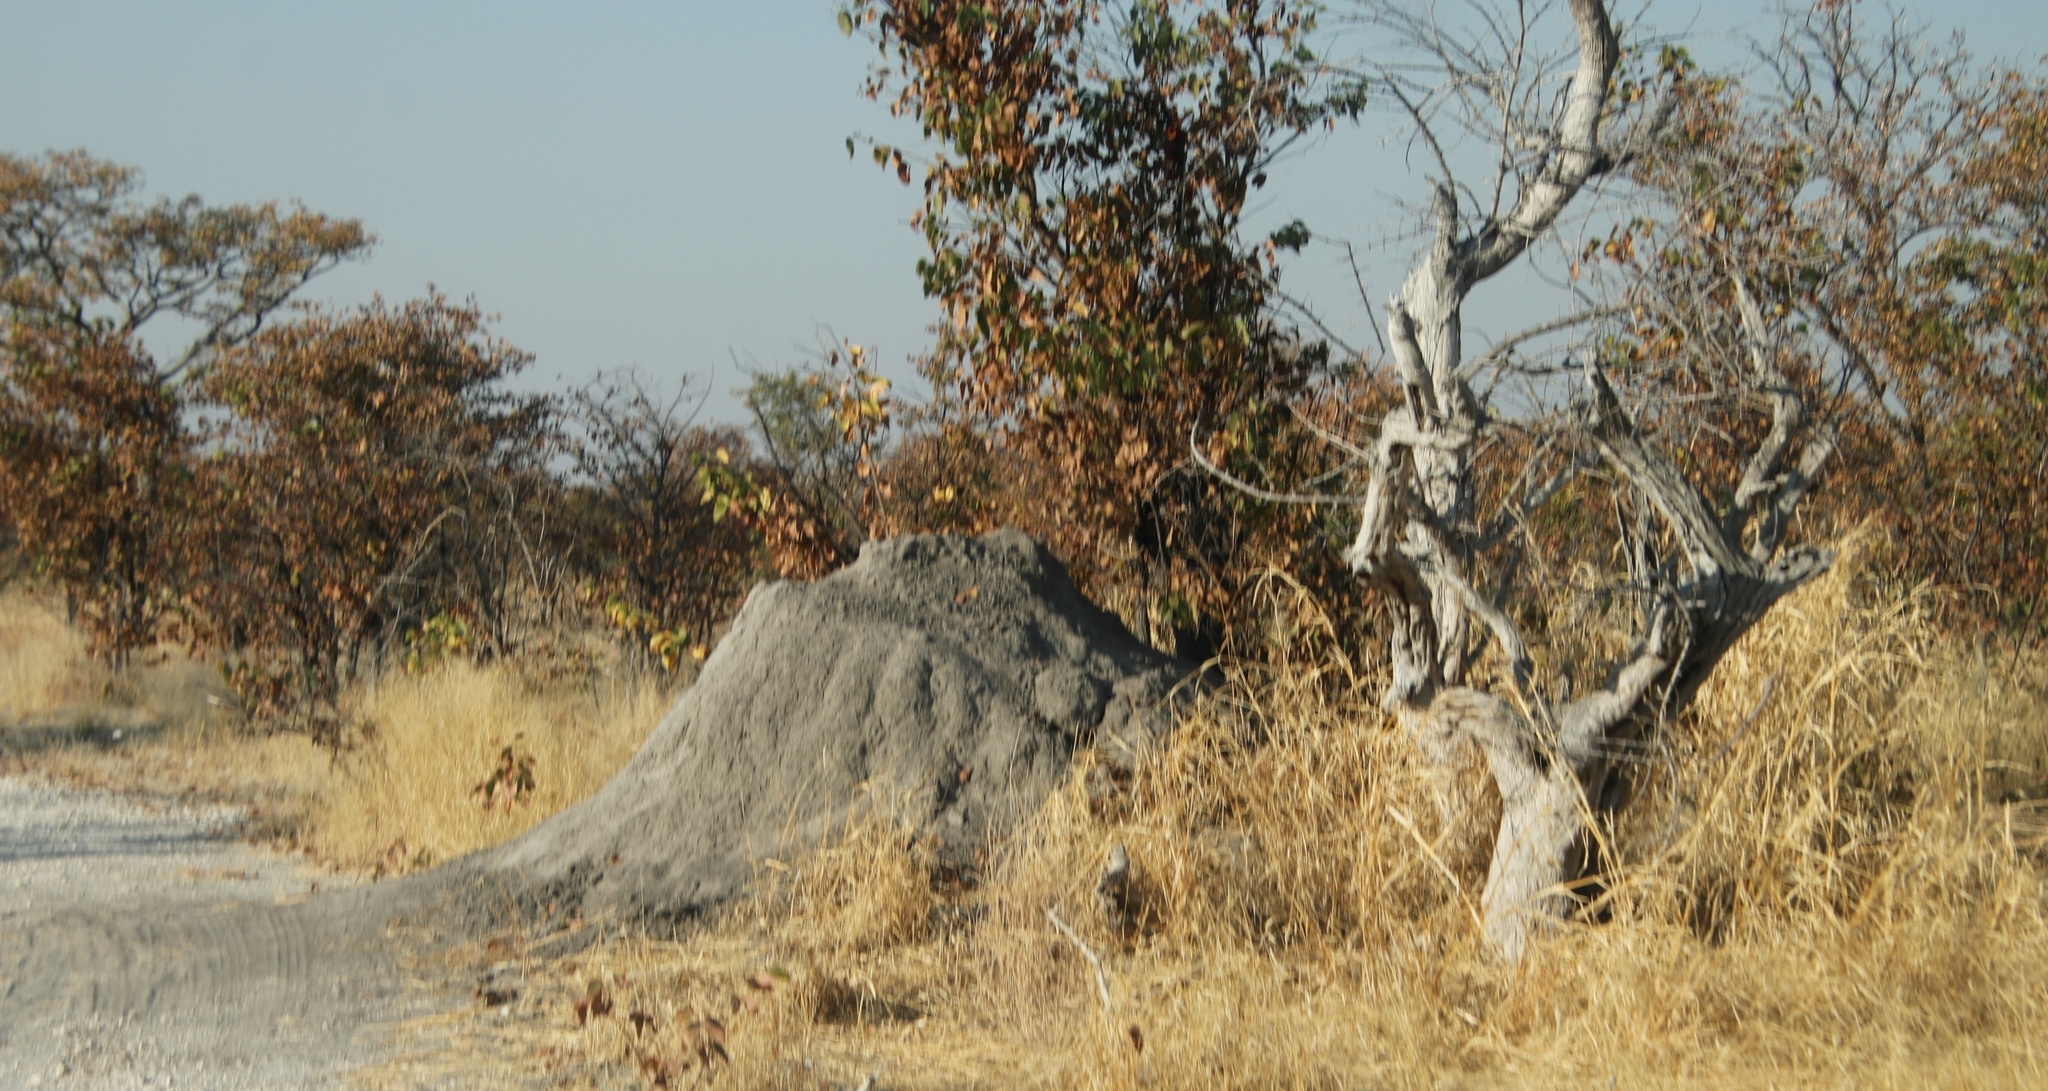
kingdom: Plantae
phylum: Tracheophyta
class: Magnoliopsida
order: Fabales
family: Fabaceae
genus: Colophospermum
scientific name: Colophospermum mopane
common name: Mopane
